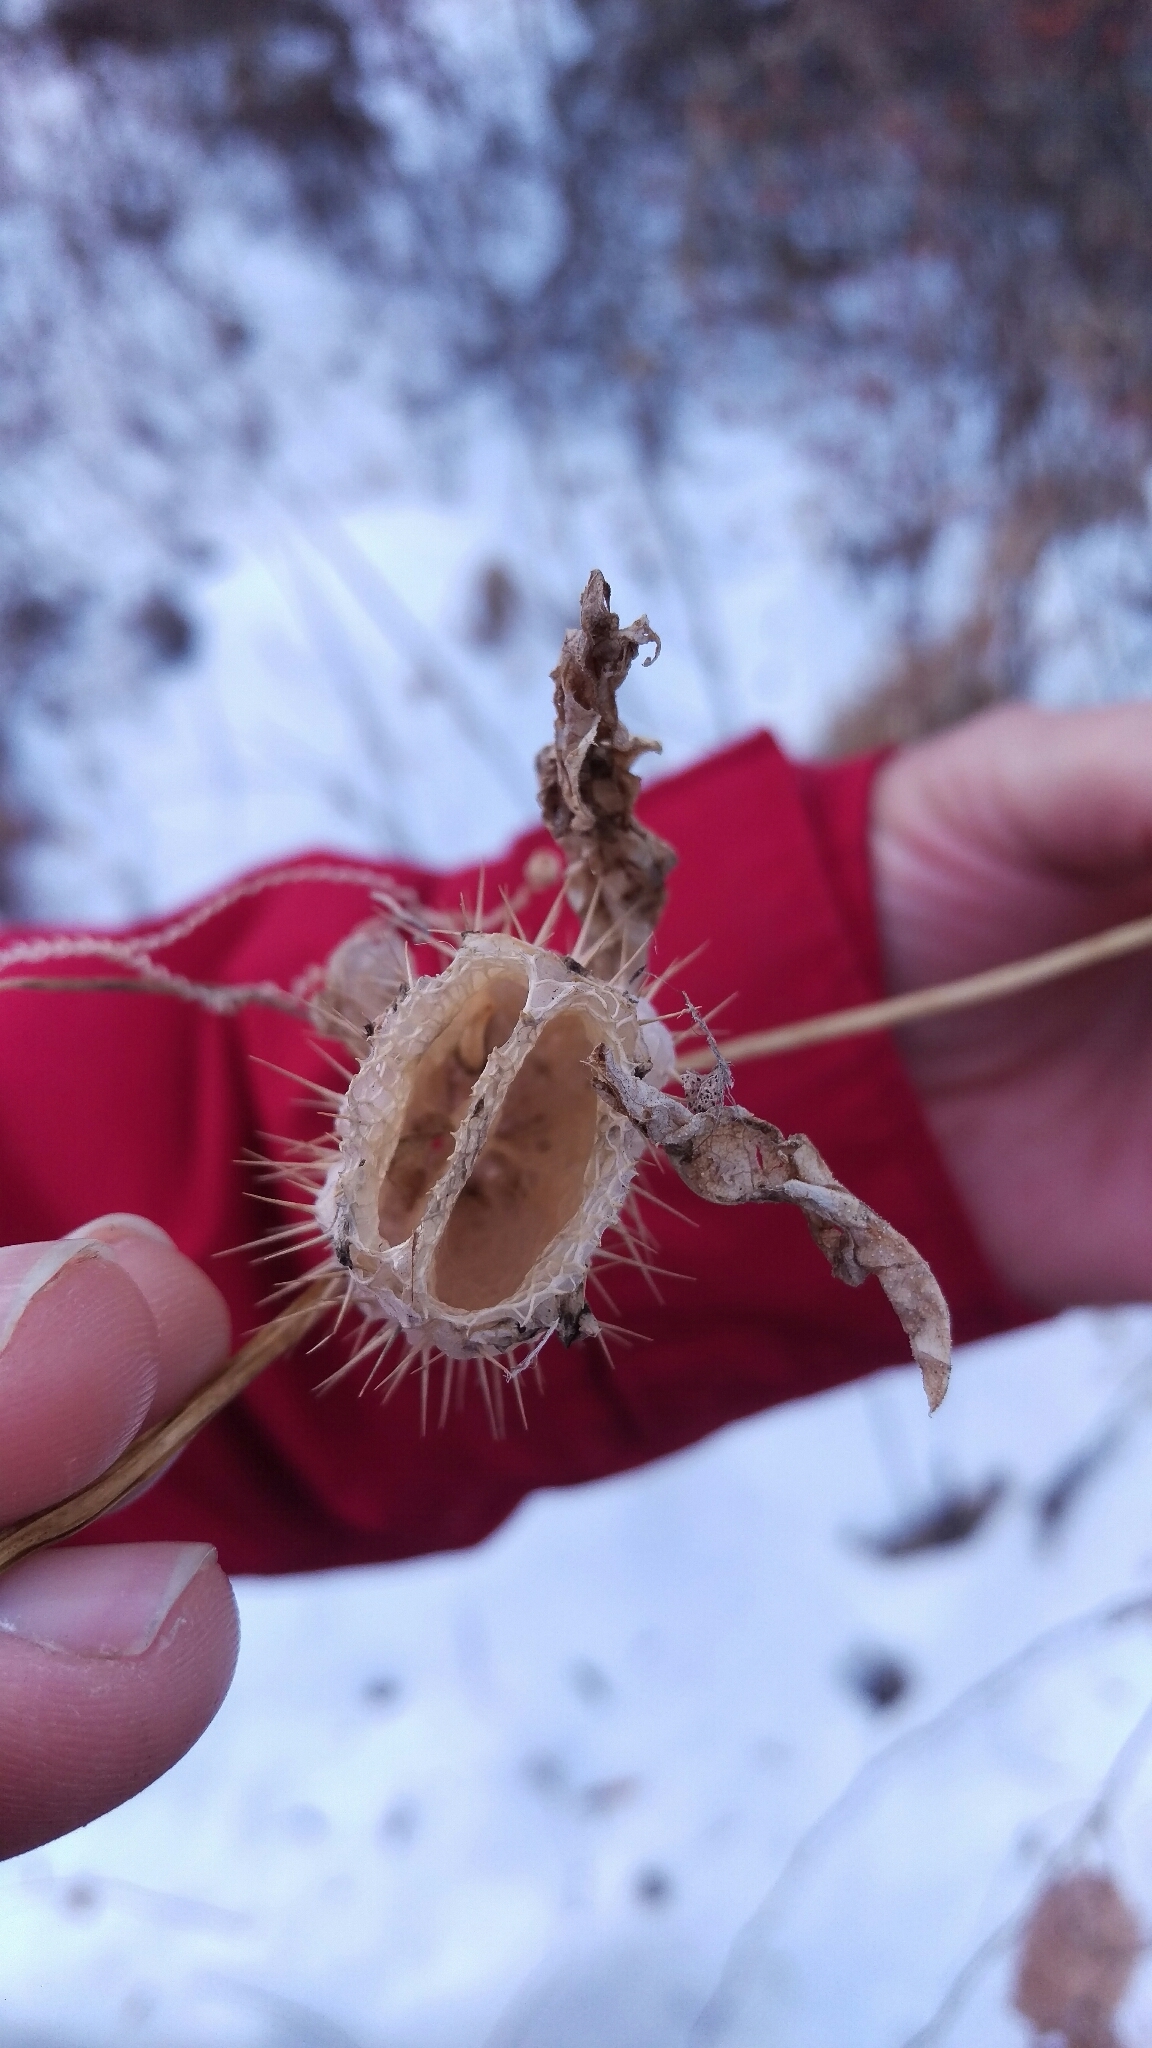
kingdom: Plantae
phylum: Tracheophyta
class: Magnoliopsida
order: Cucurbitales
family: Cucurbitaceae
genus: Echinocystis
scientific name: Echinocystis lobata
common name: Wild cucumber
